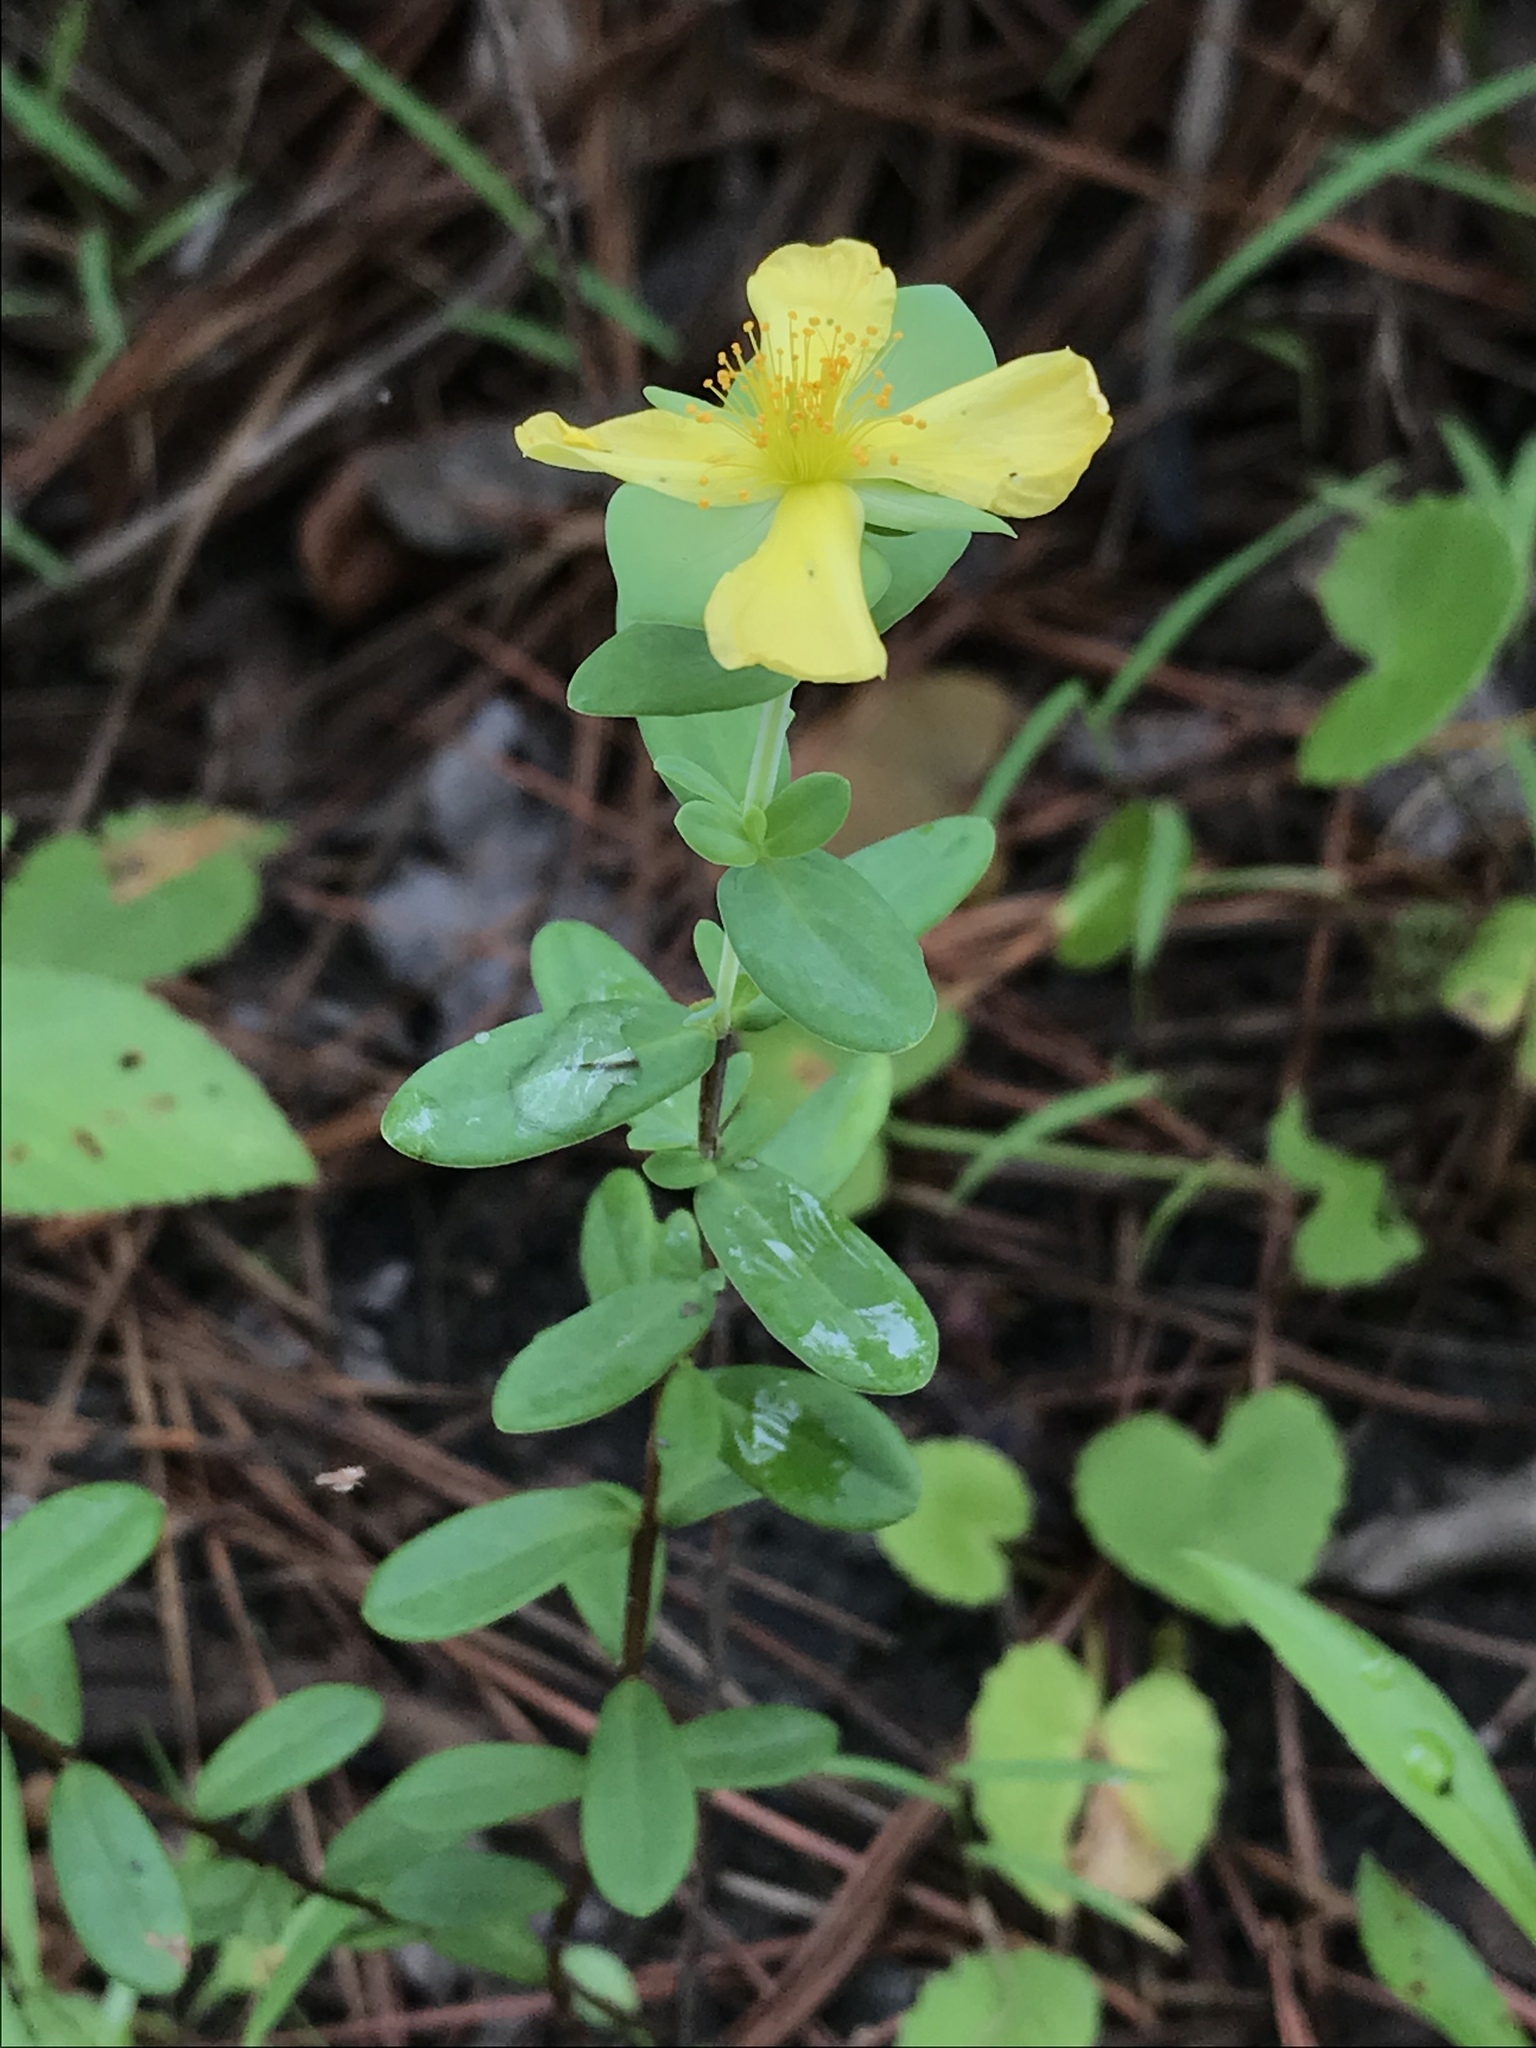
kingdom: Plantae
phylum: Tracheophyta
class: Magnoliopsida
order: Malpighiales
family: Hypericaceae
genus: Hypericum
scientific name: Hypericum crux-andreae
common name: St.-peter's-wort
